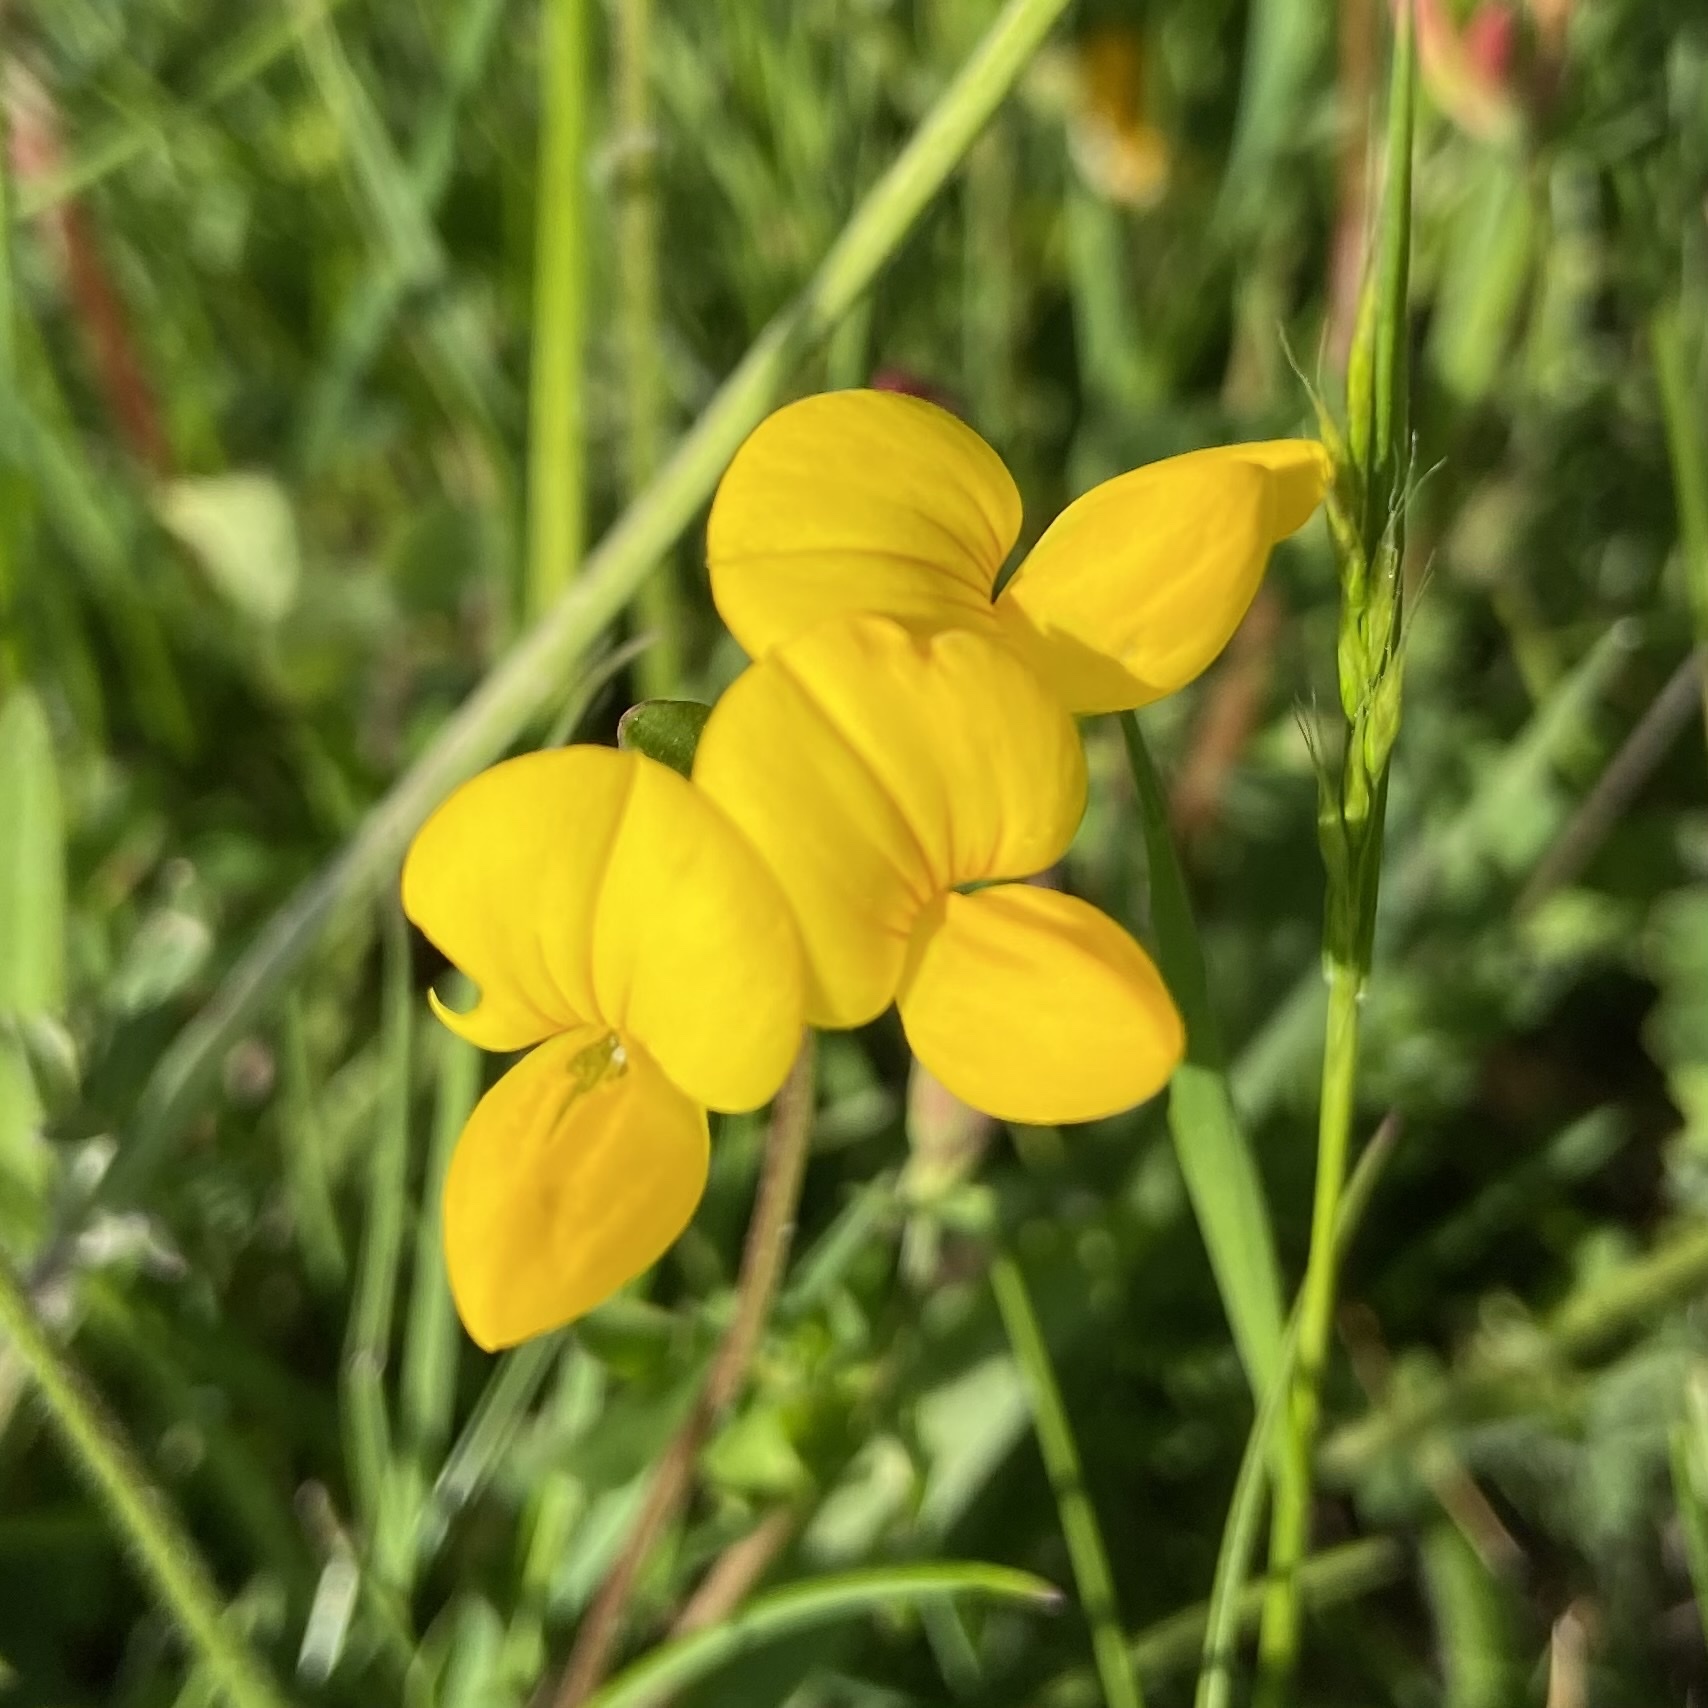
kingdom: Plantae
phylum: Tracheophyta
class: Magnoliopsida
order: Fabales
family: Fabaceae
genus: Lotus
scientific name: Lotus corniculatus
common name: Common bird's-foot-trefoil
